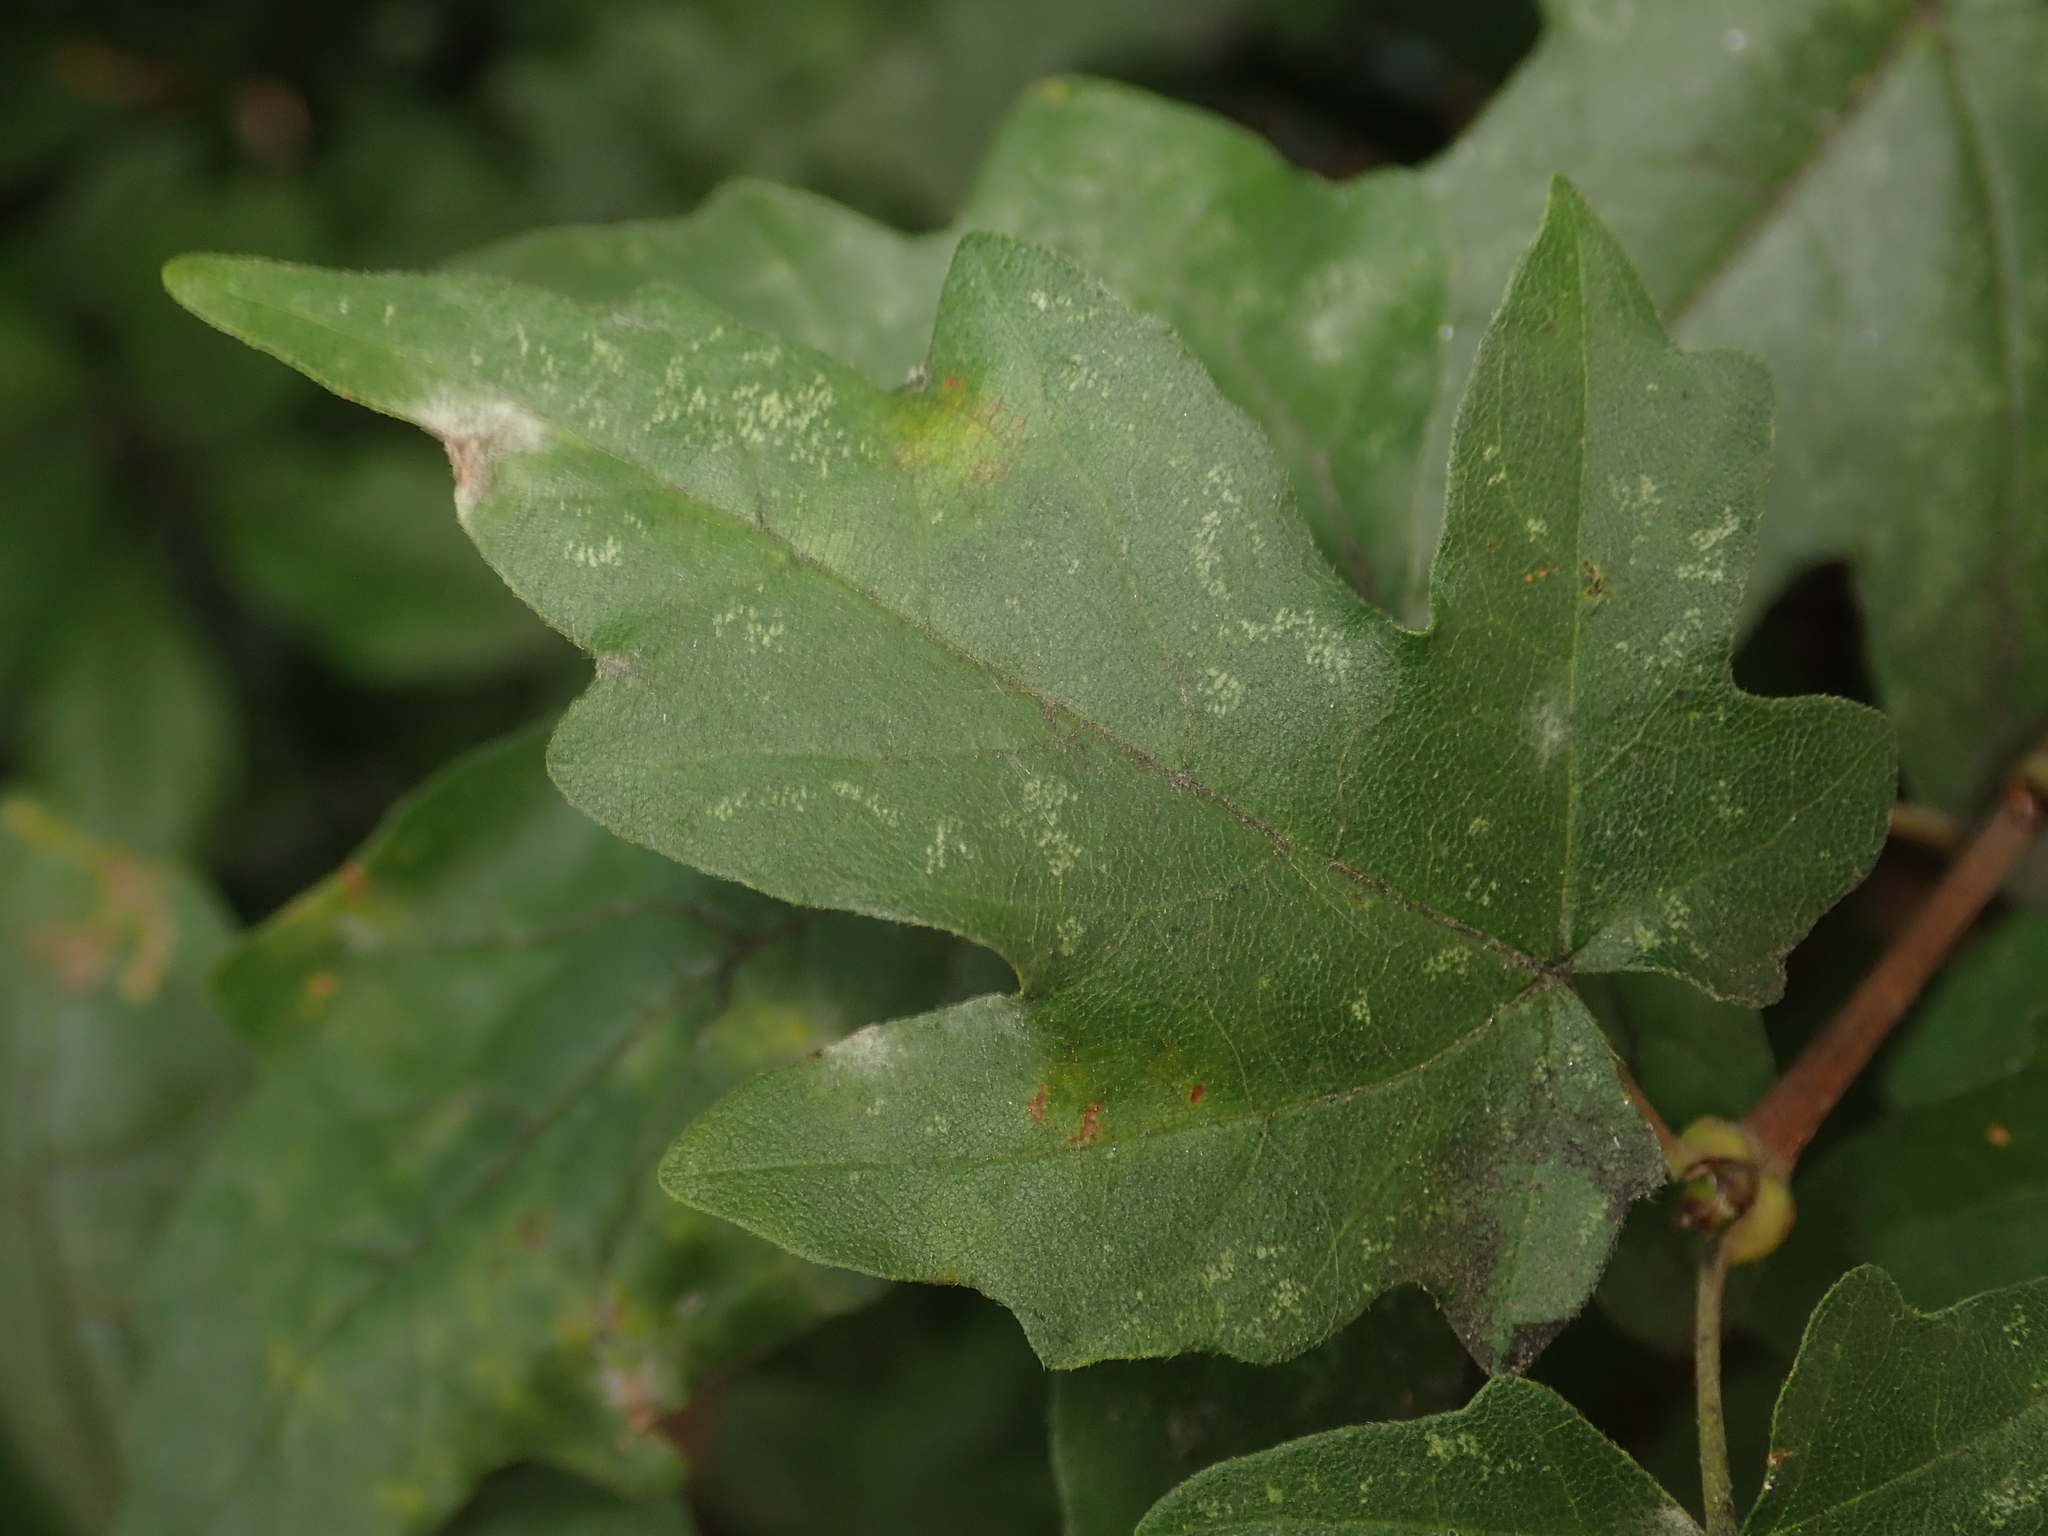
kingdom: Plantae
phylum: Tracheophyta
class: Magnoliopsida
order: Sapindales
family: Sapindaceae
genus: Acer
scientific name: Acer campestre
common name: Field maple
